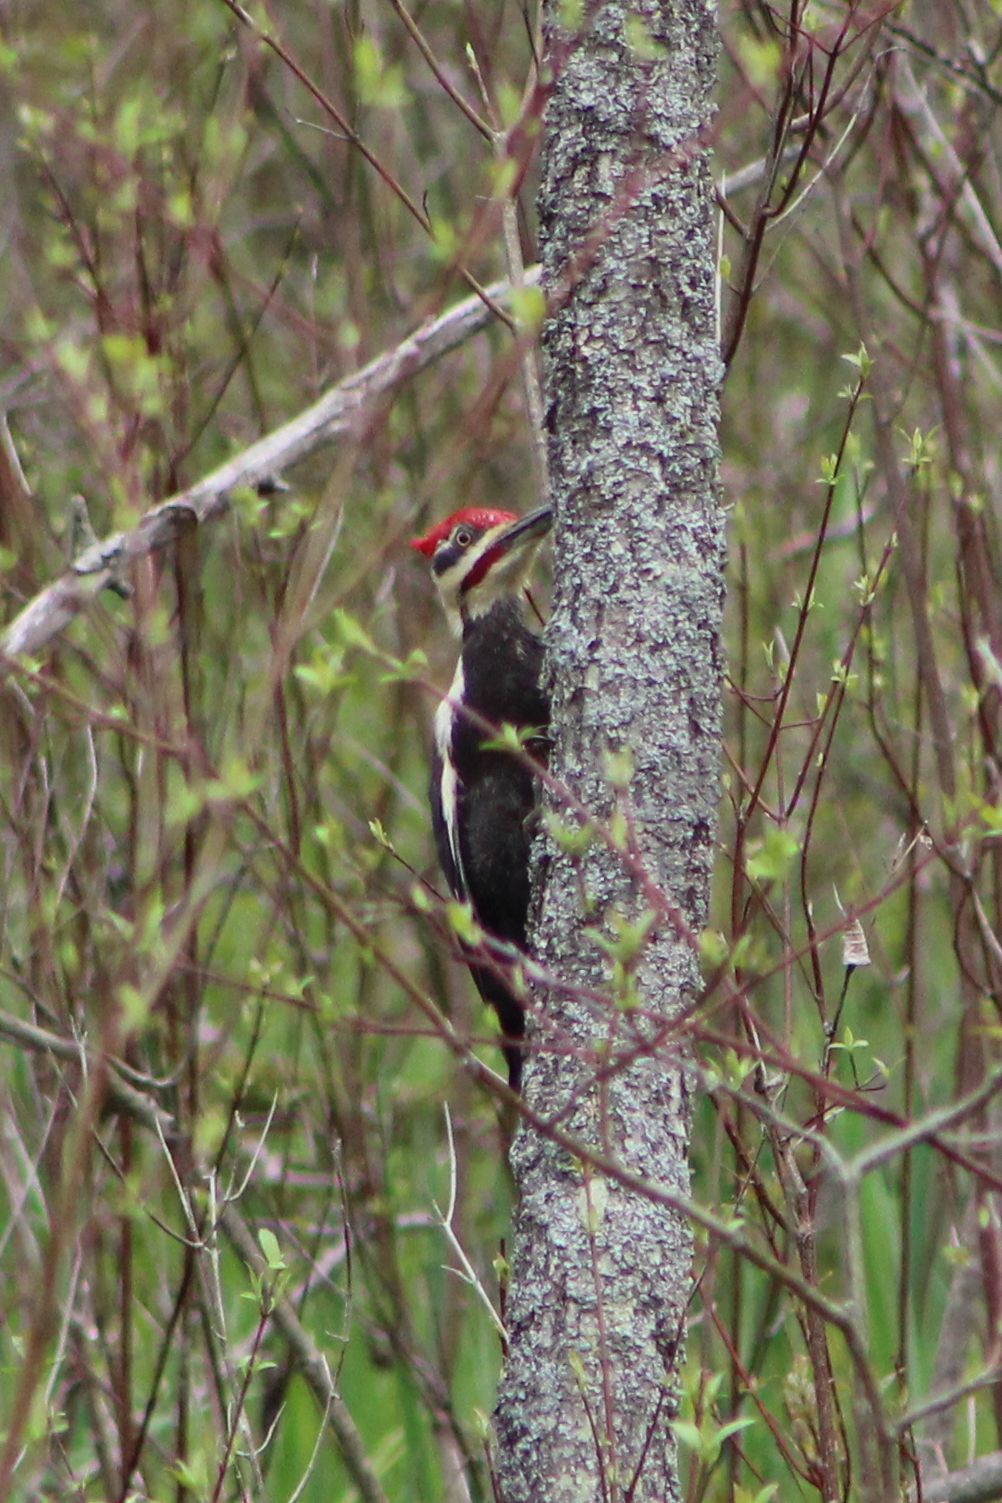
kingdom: Animalia
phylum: Chordata
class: Aves
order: Piciformes
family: Picidae
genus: Dryocopus
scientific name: Dryocopus pileatus
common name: Pileated woodpecker
